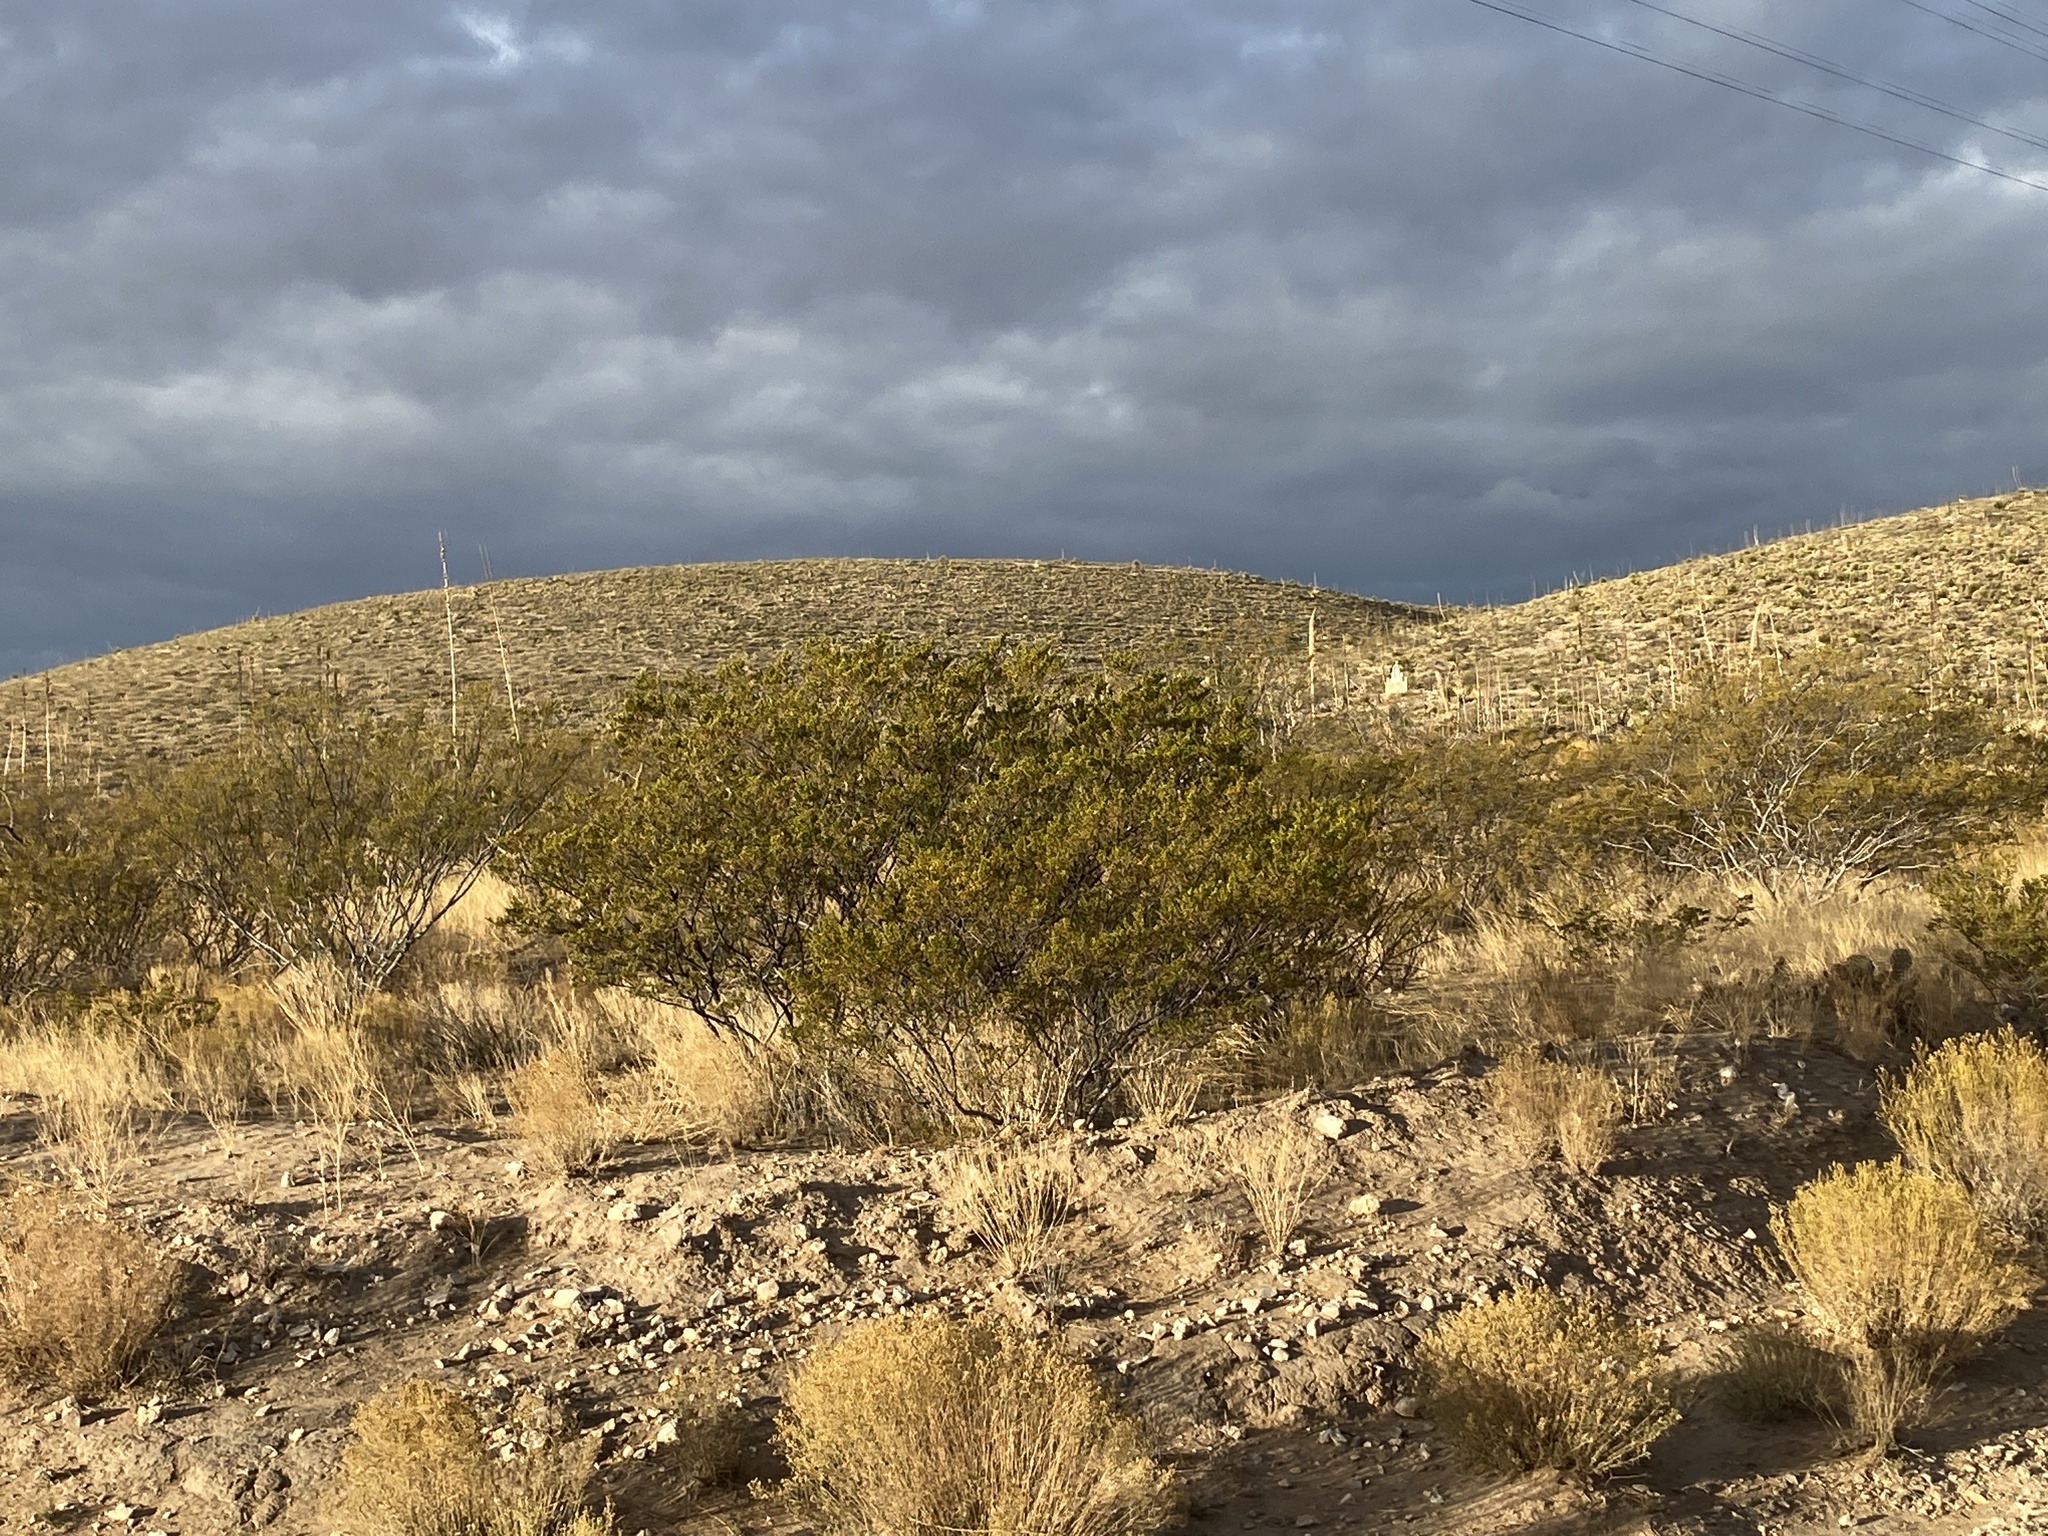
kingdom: Plantae
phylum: Tracheophyta
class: Magnoliopsida
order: Zygophyllales
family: Zygophyllaceae
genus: Larrea
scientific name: Larrea tridentata
